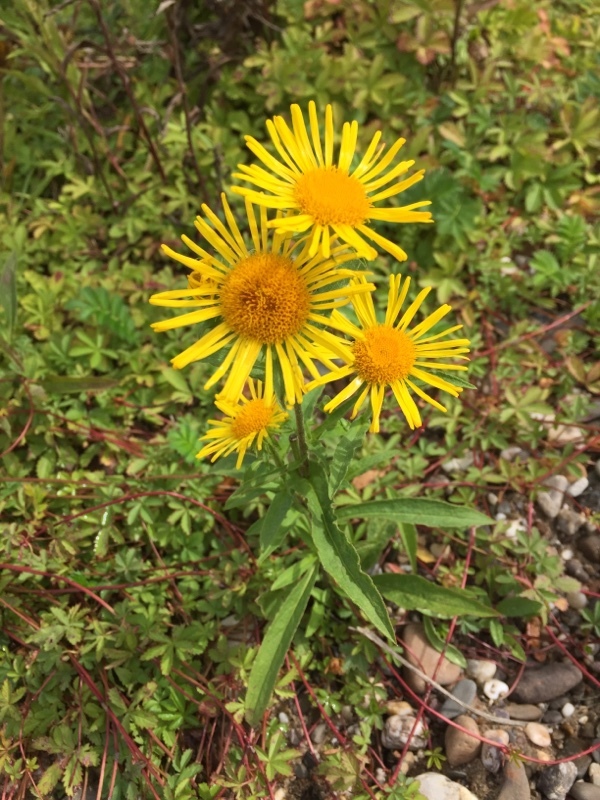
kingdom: Plantae
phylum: Tracheophyta
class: Magnoliopsida
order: Asterales
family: Asteraceae
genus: Pentanema
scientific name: Pentanema britannicum
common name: British elecampane
